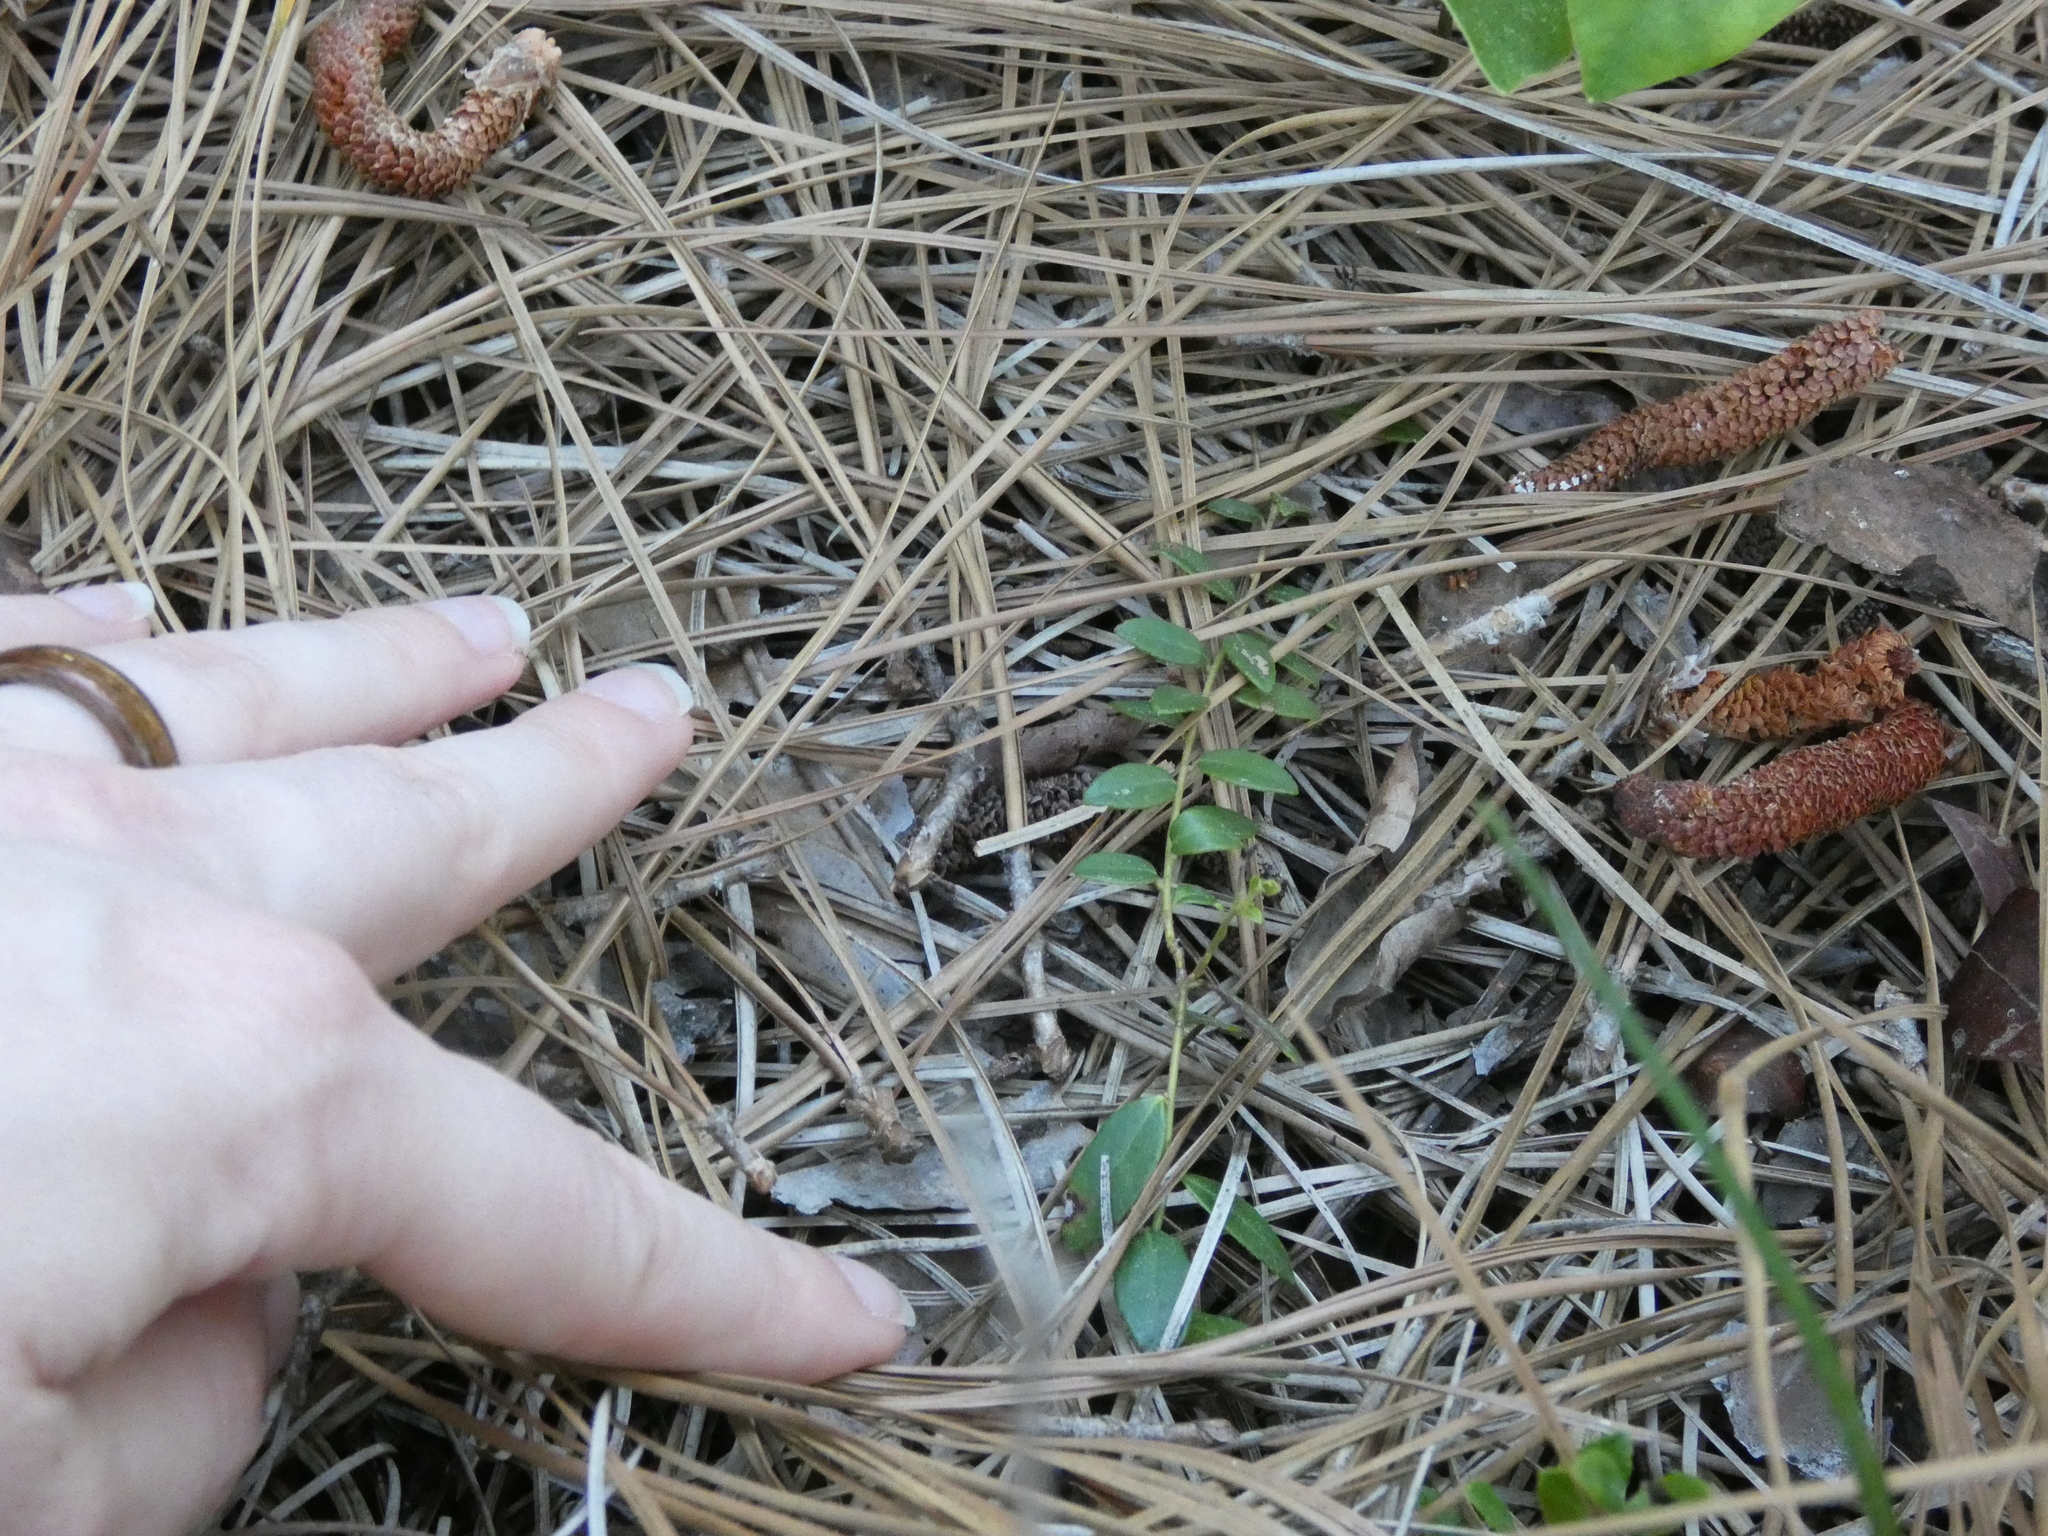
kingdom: Plantae
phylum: Tracheophyta
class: Magnoliopsida
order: Ericales
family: Ericaceae
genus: Vaccinium
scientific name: Vaccinium crassifolium
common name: Creeping blueberry
